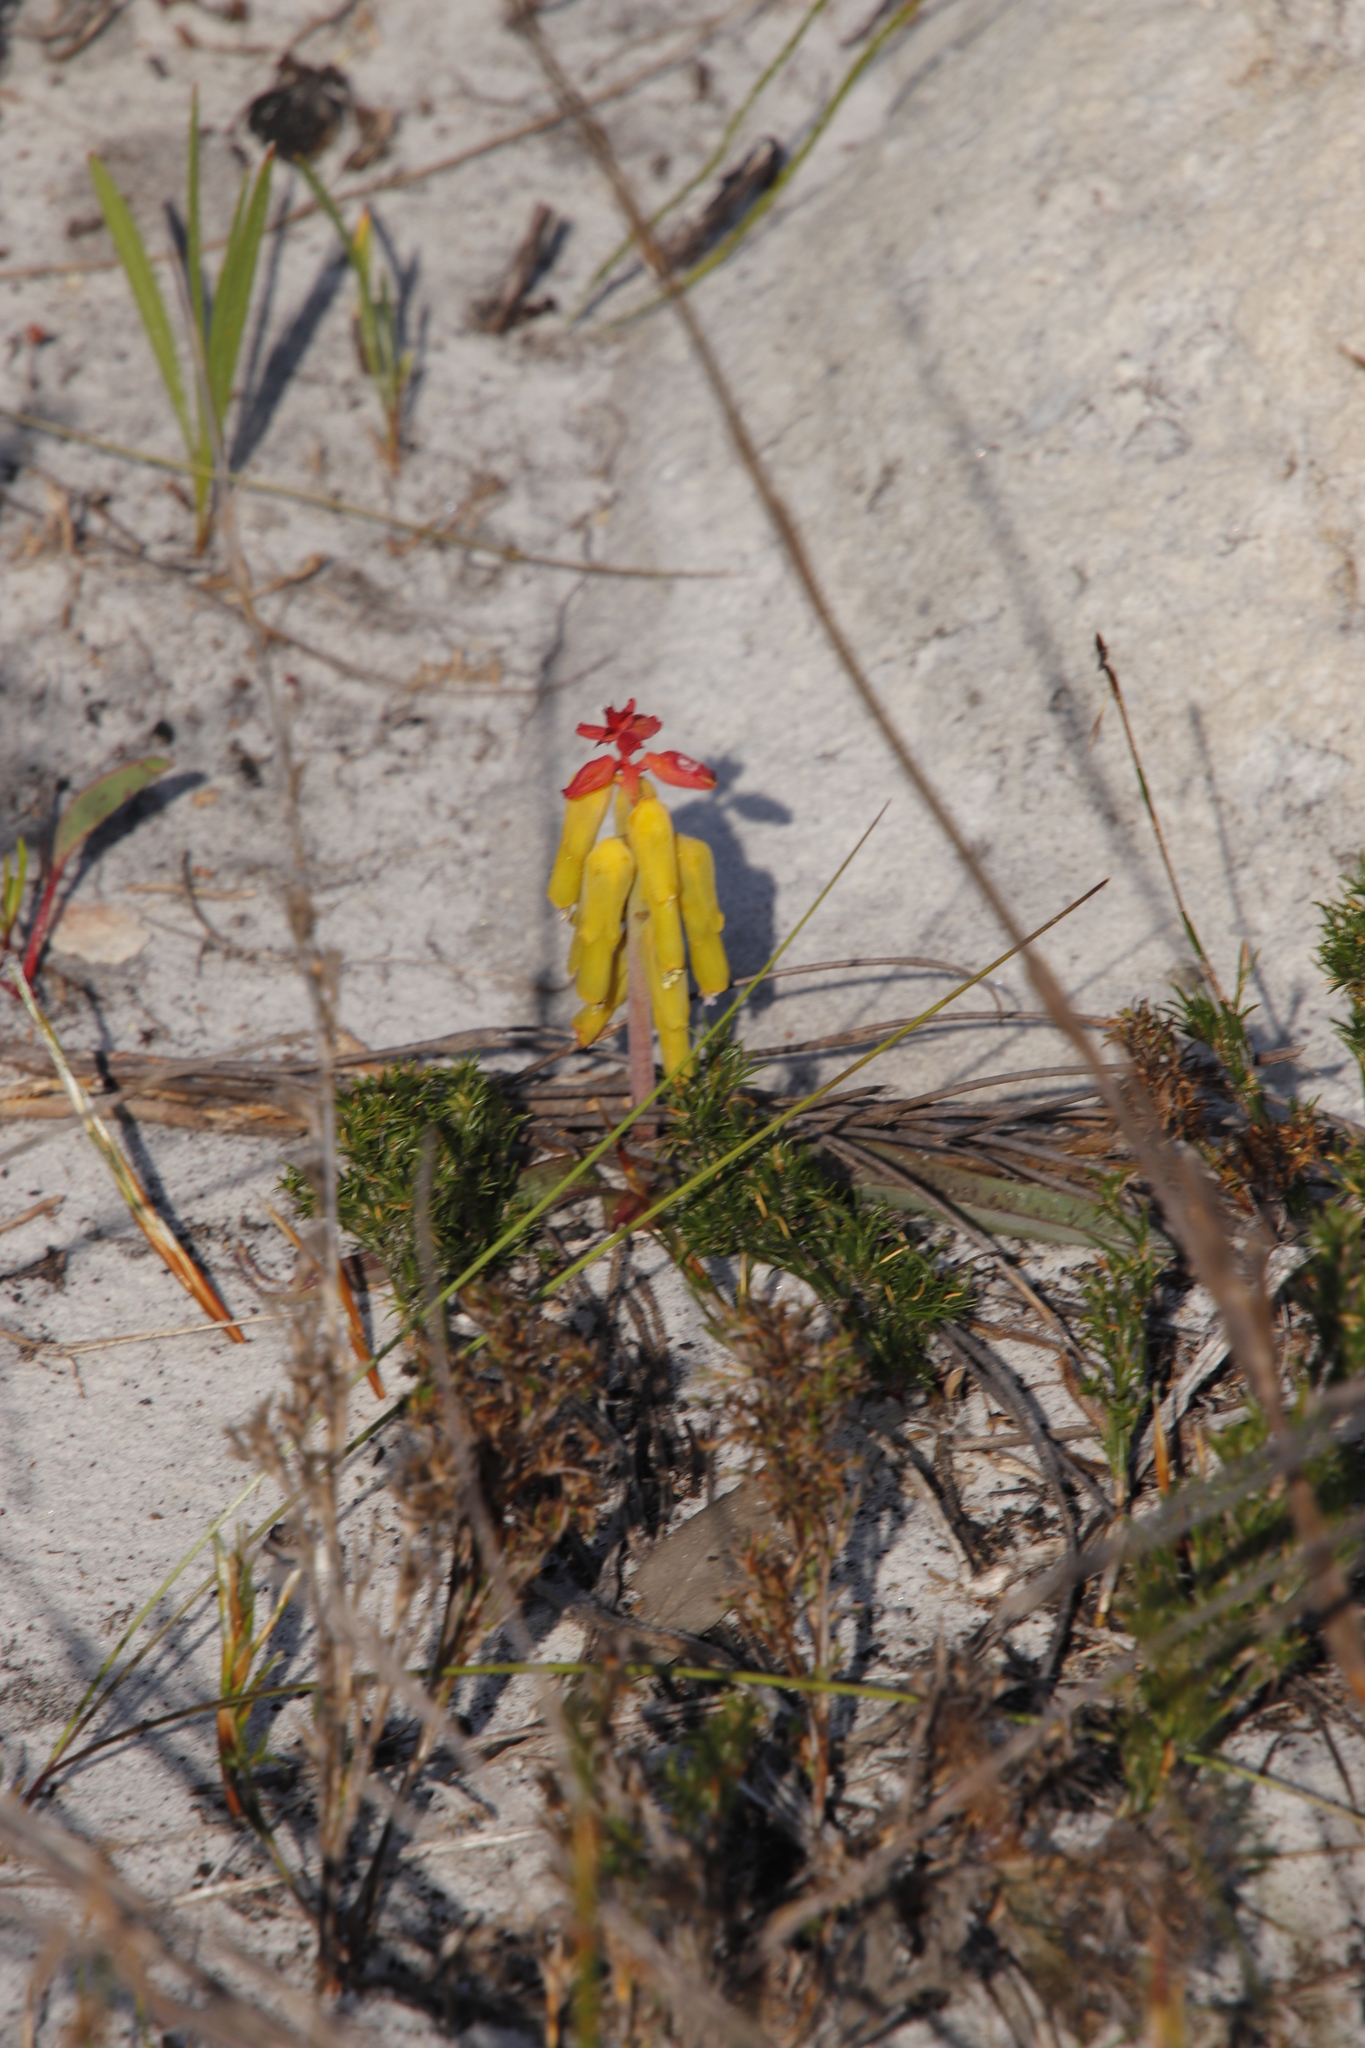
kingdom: Plantae
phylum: Tracheophyta
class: Liliopsida
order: Asparagales
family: Asparagaceae
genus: Lachenalia
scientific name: Lachenalia luteola
